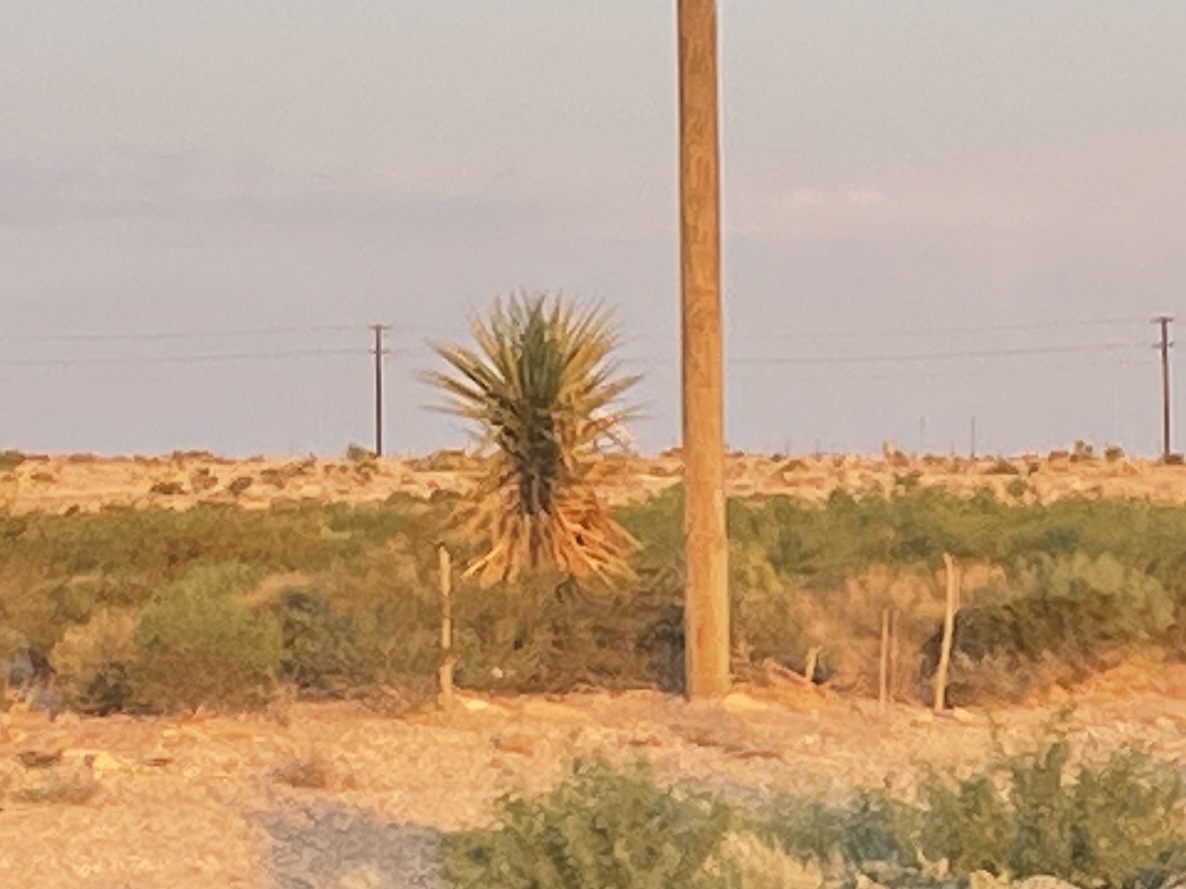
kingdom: Plantae
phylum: Tracheophyta
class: Liliopsida
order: Asparagales
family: Asparagaceae
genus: Yucca
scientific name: Yucca treculiana
